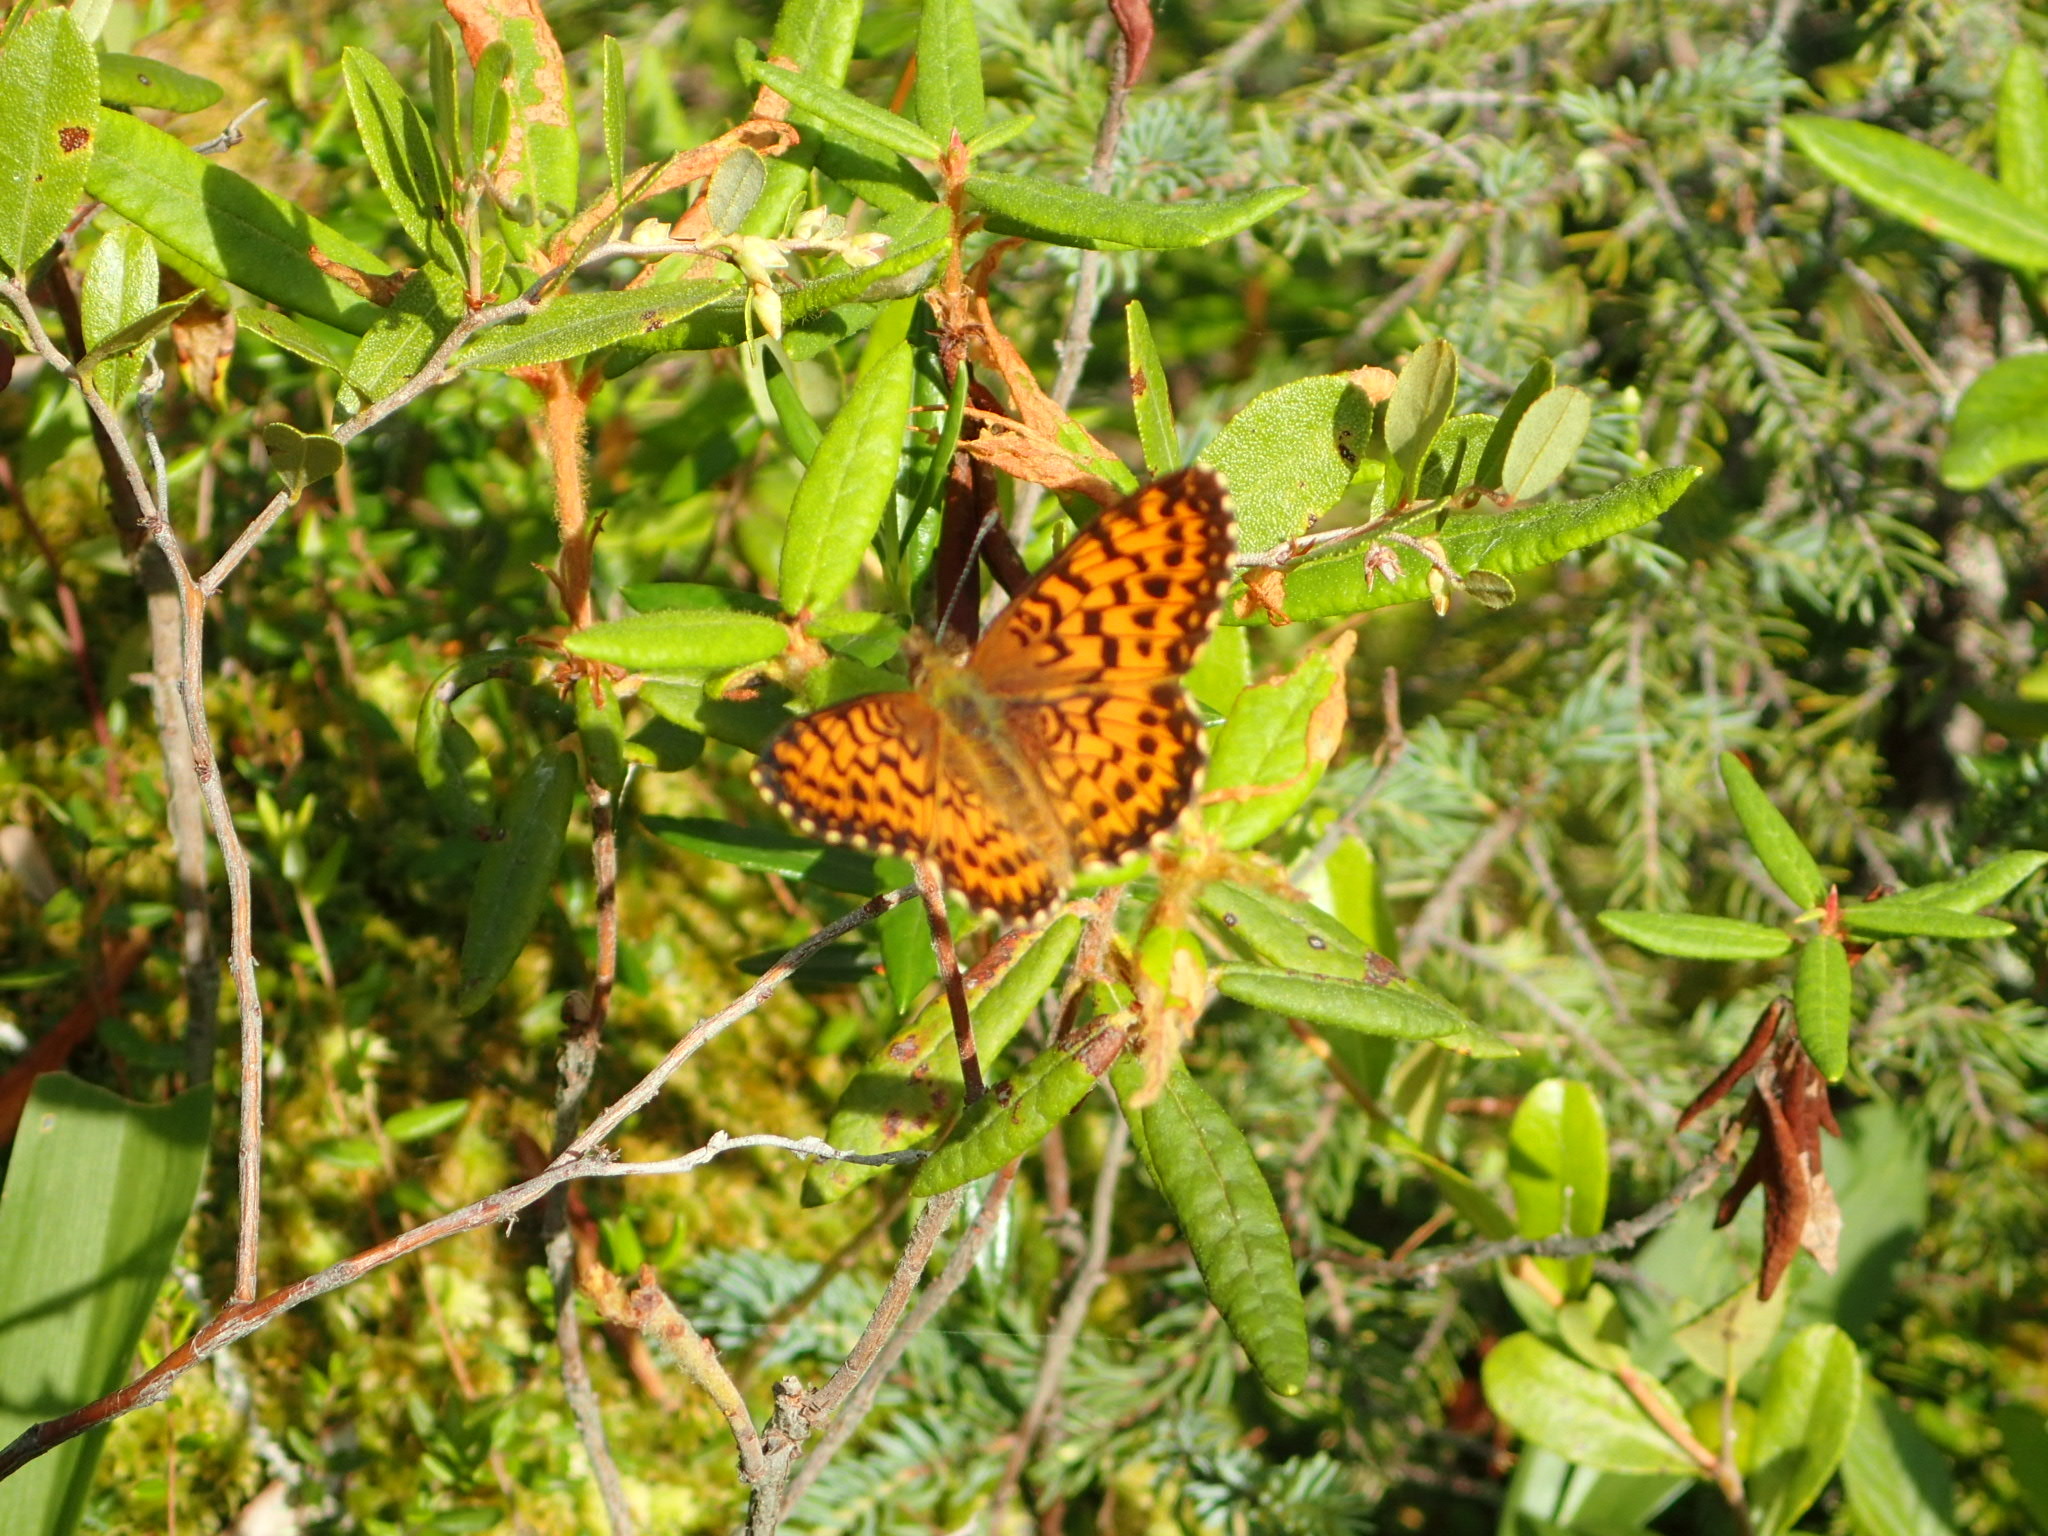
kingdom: Animalia
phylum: Arthropoda
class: Insecta
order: Lepidoptera
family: Nymphalidae
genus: Boloria
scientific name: Boloria chariclea
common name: Arctic fritillary
